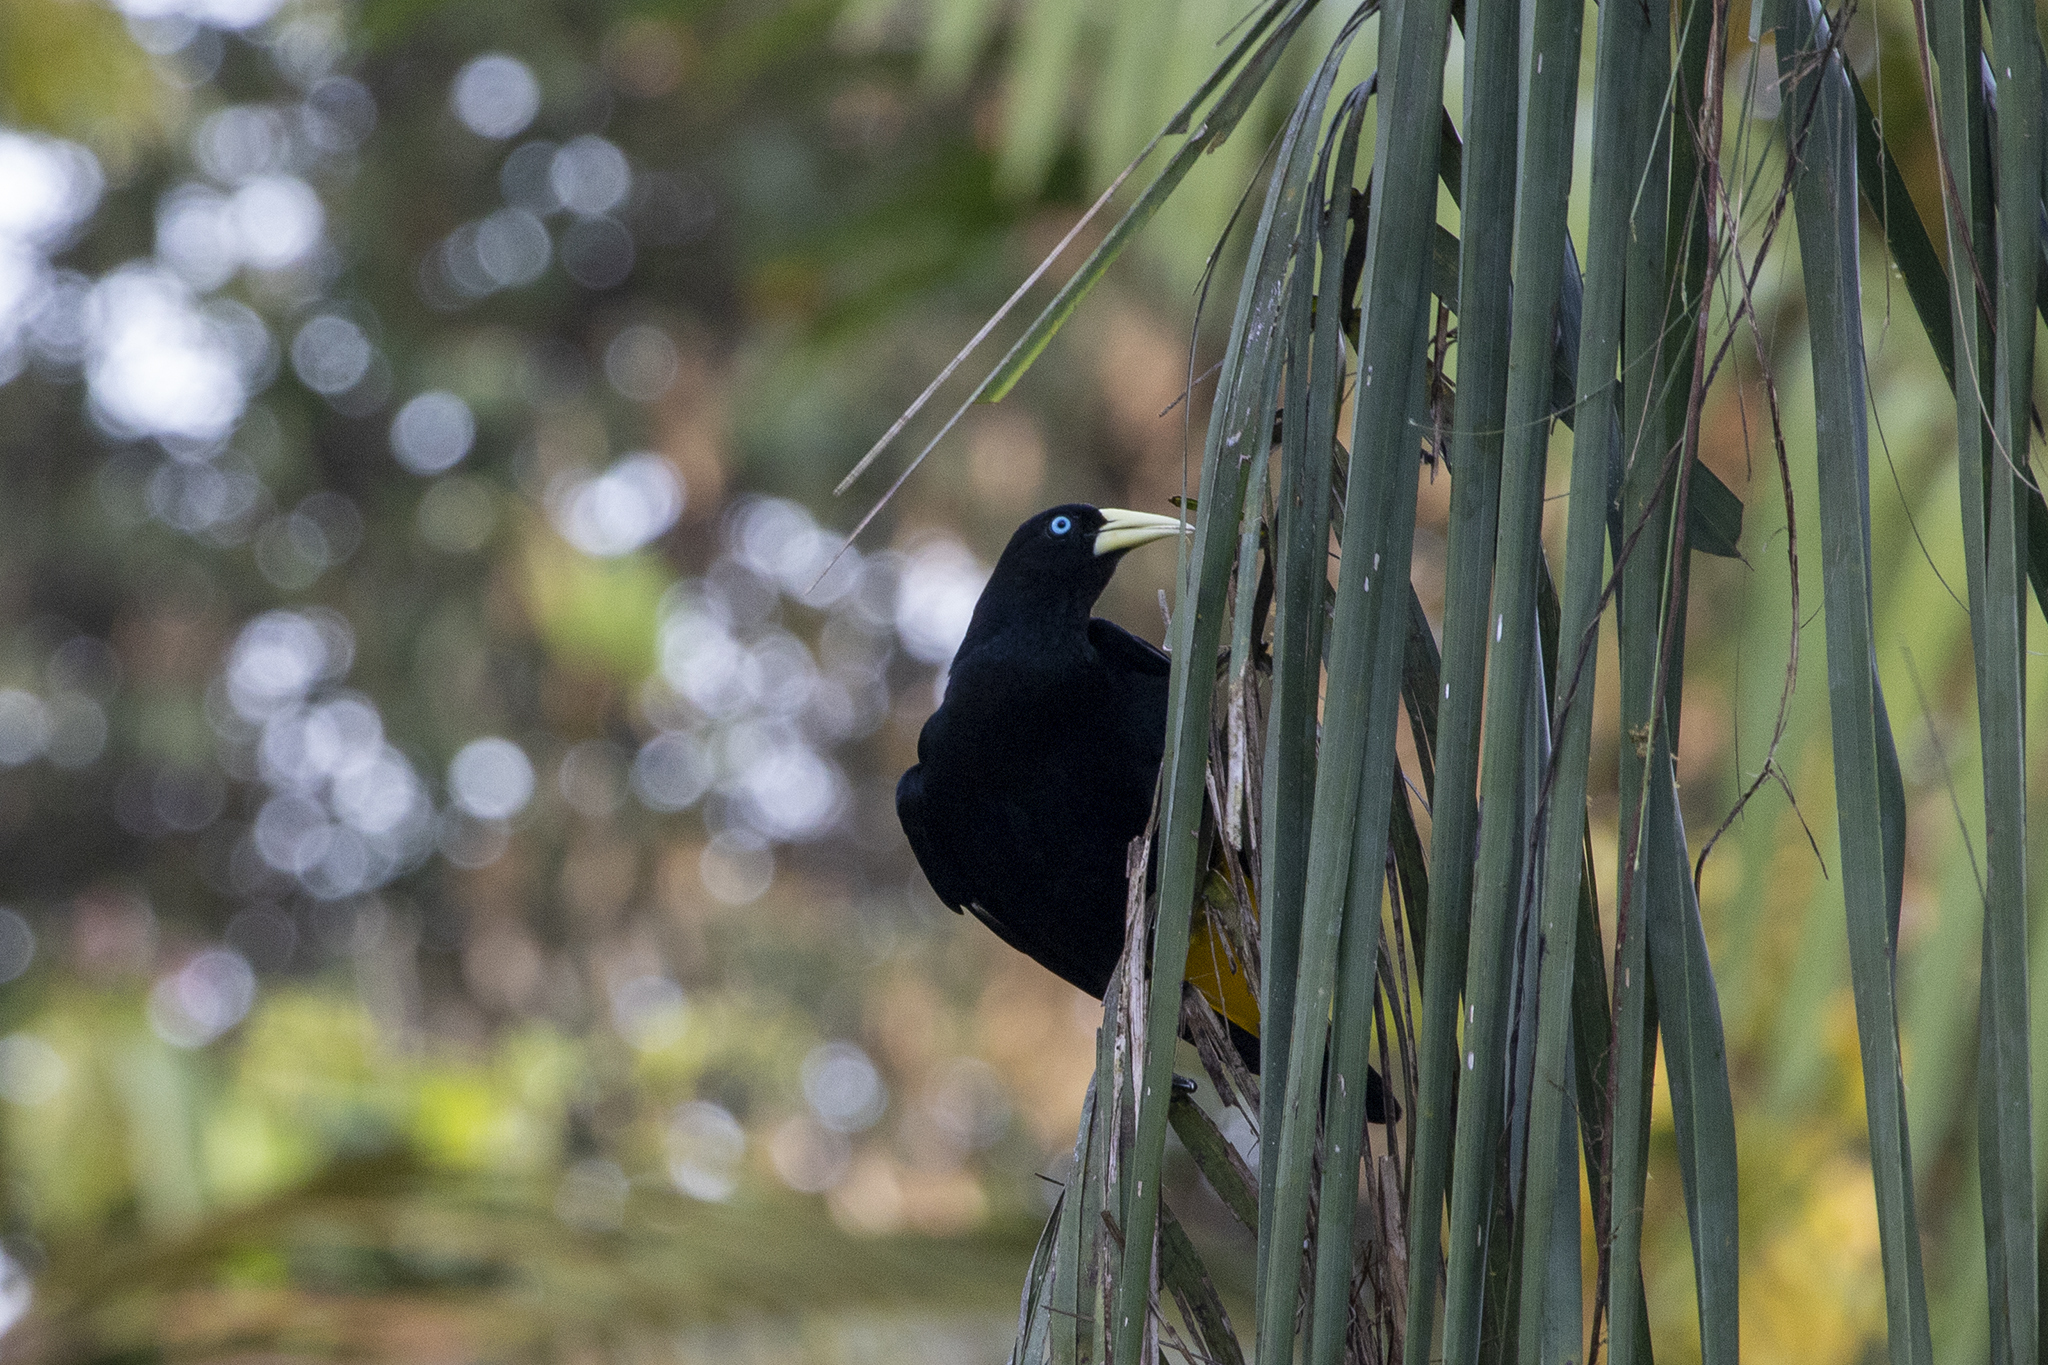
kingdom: Animalia
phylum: Chordata
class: Aves
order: Passeriformes
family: Icteridae
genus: Cacicus
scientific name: Cacicus cela
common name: Yellow-rumped cacique
